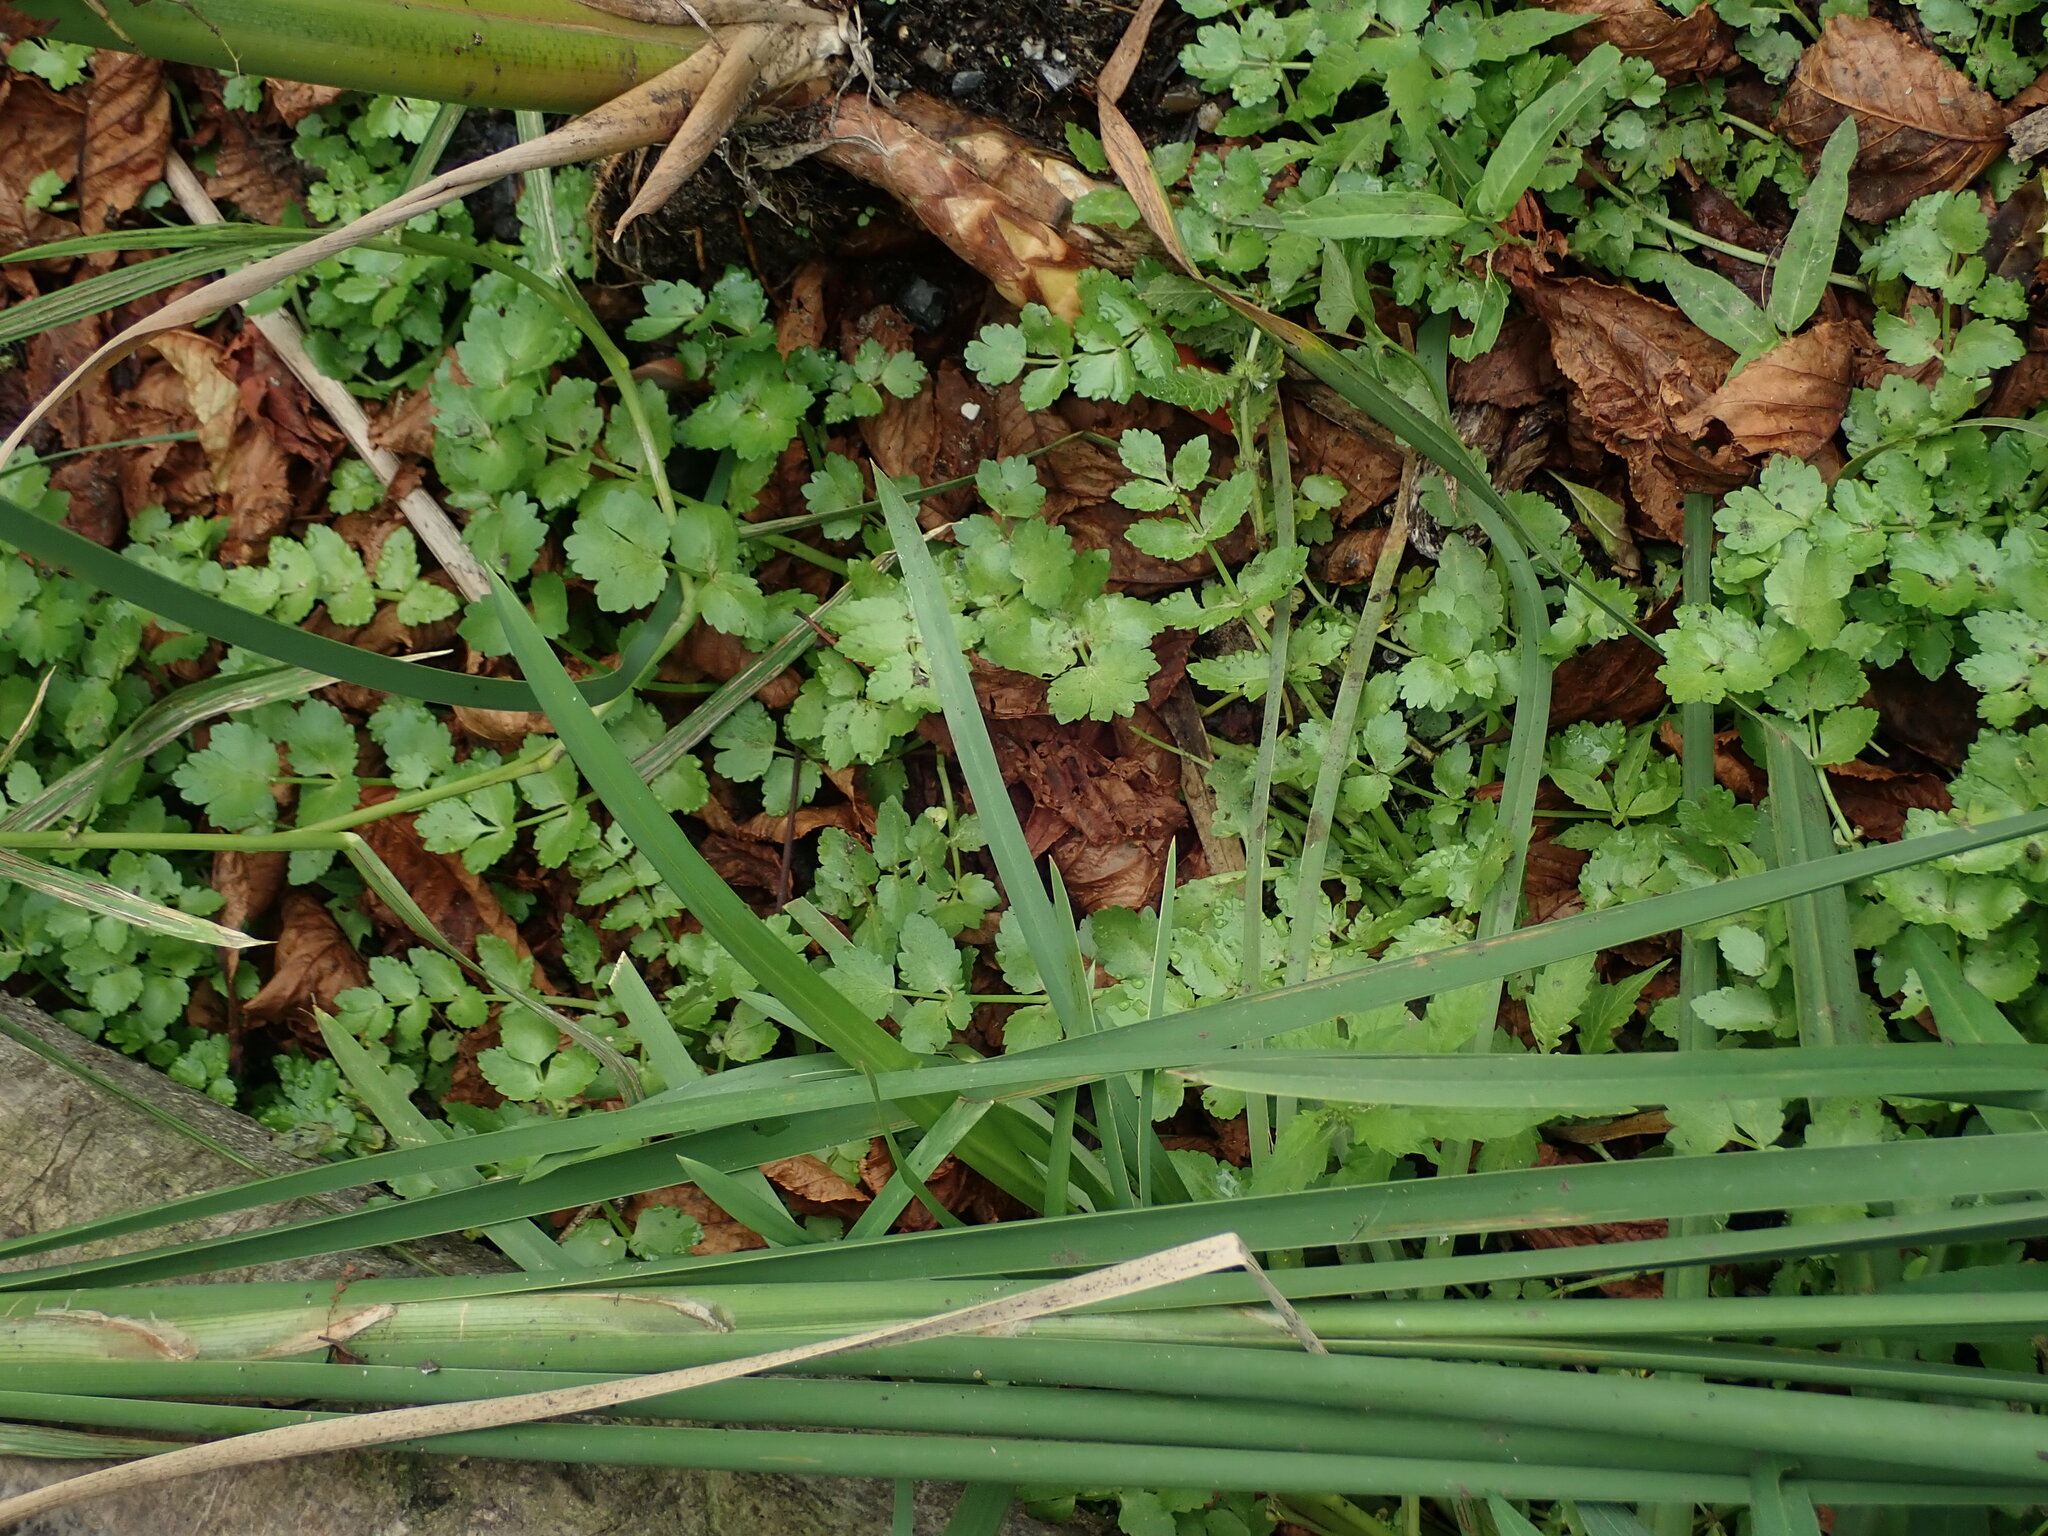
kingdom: Plantae
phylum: Tracheophyta
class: Magnoliopsida
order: Apiales
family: Apiaceae
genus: Helosciadium
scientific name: Helosciadium nodiflorum
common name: Fool's-watercress
